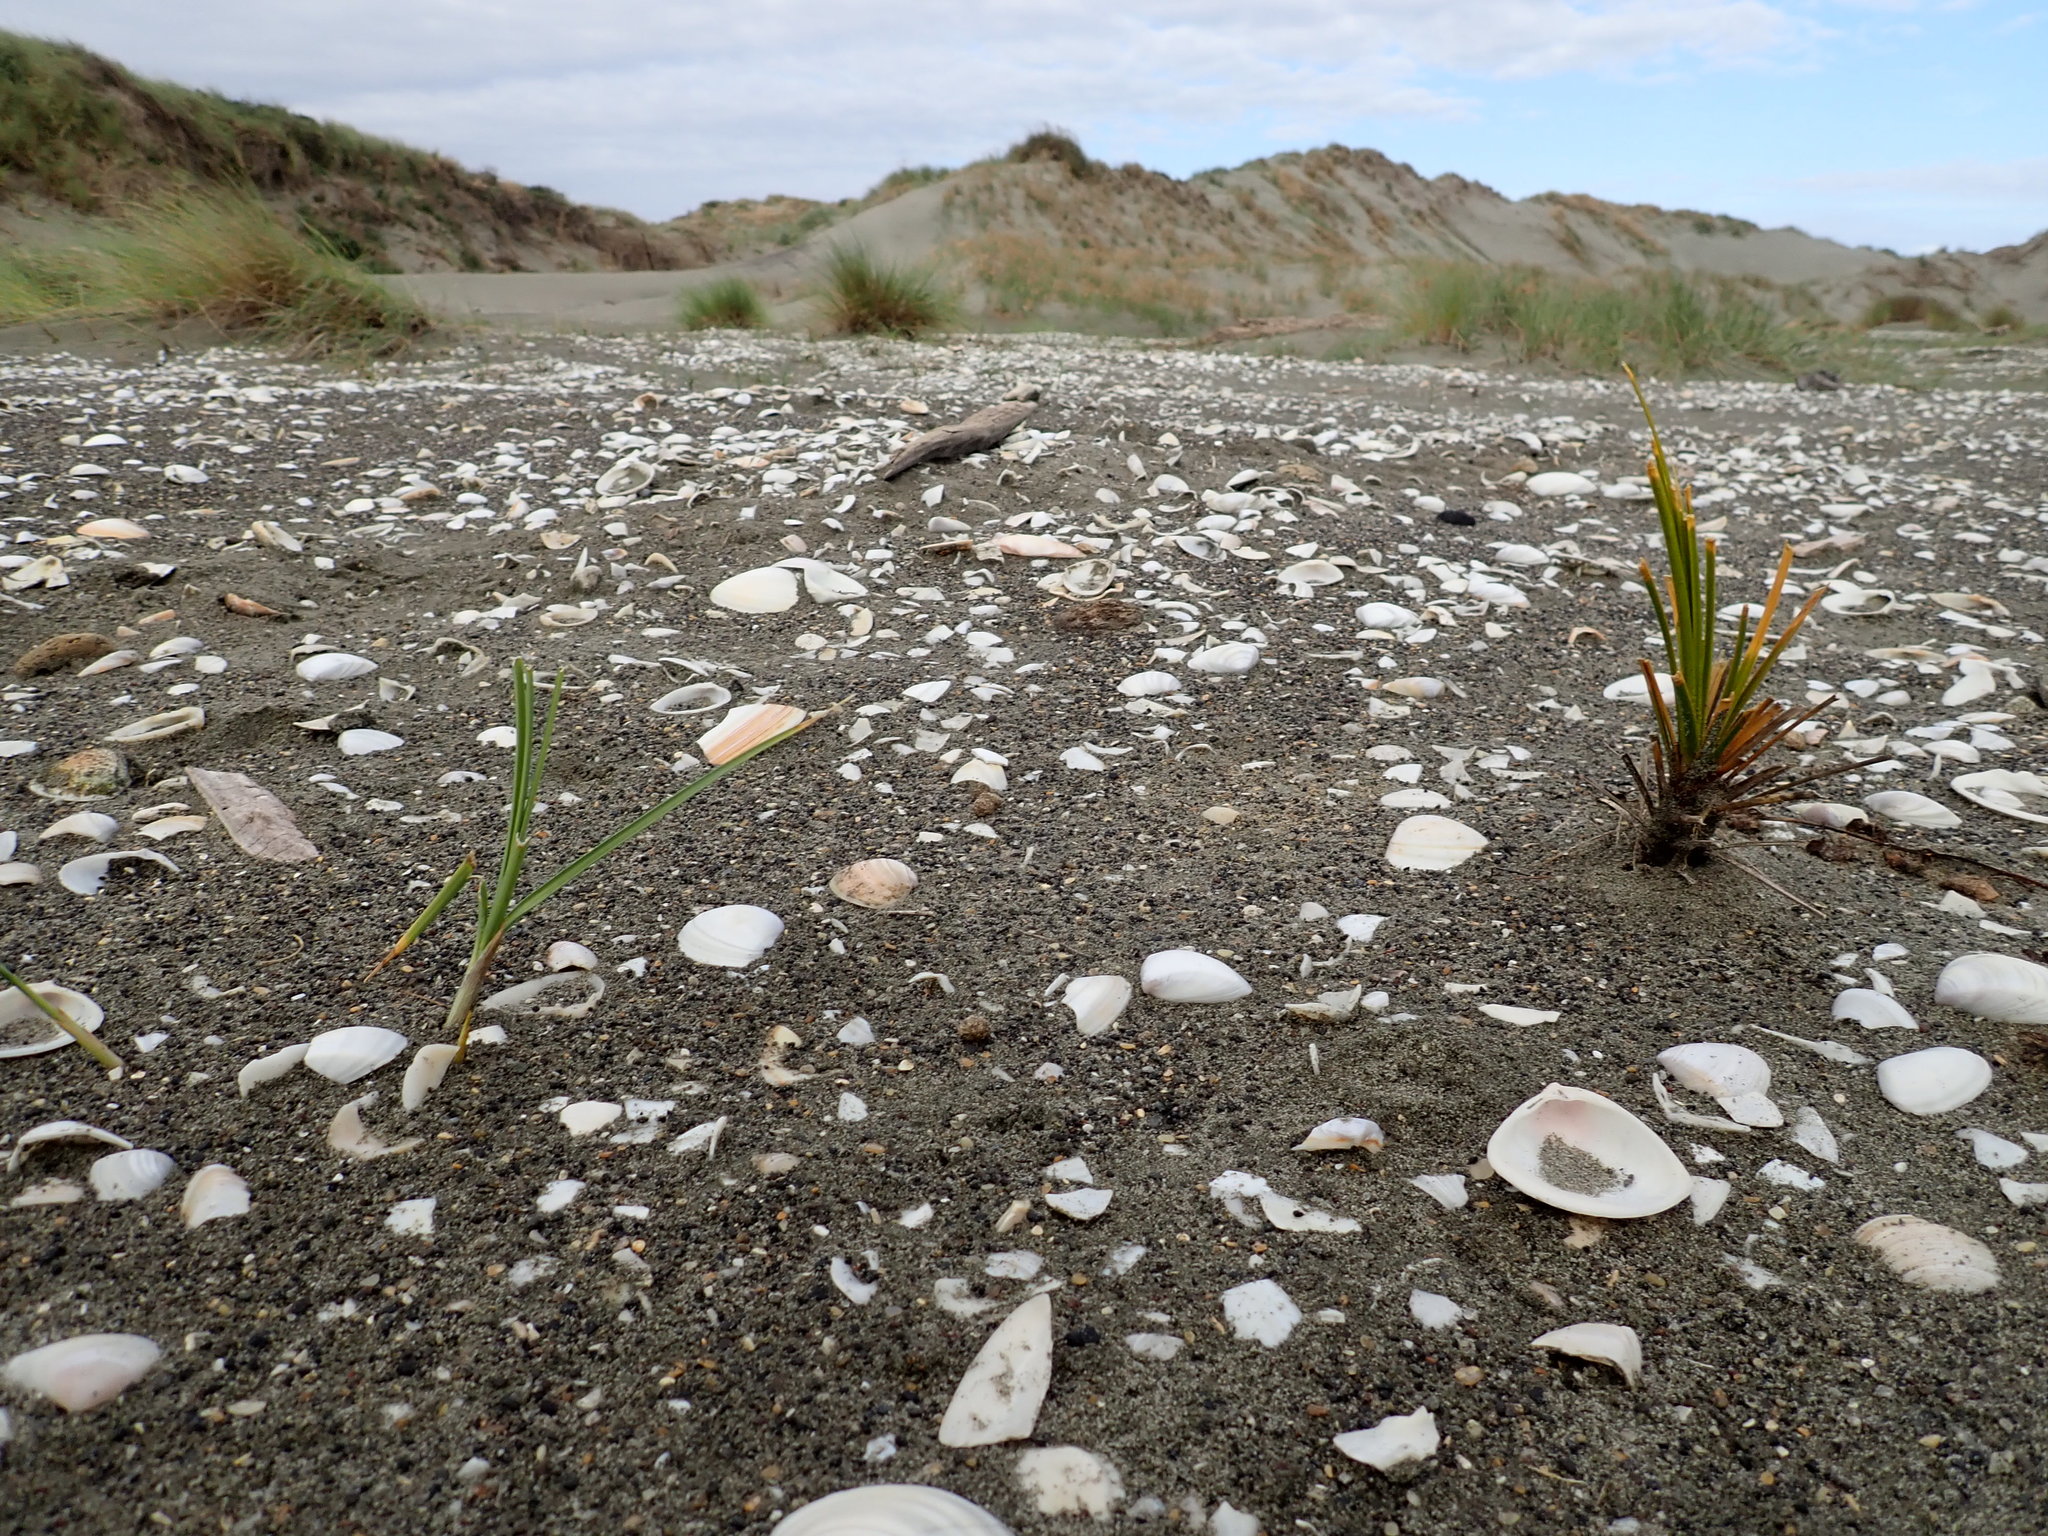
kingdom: Plantae
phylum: Tracheophyta
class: Liliopsida
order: Poales
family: Cyperaceae
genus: Ficinia
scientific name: Ficinia spiralis
